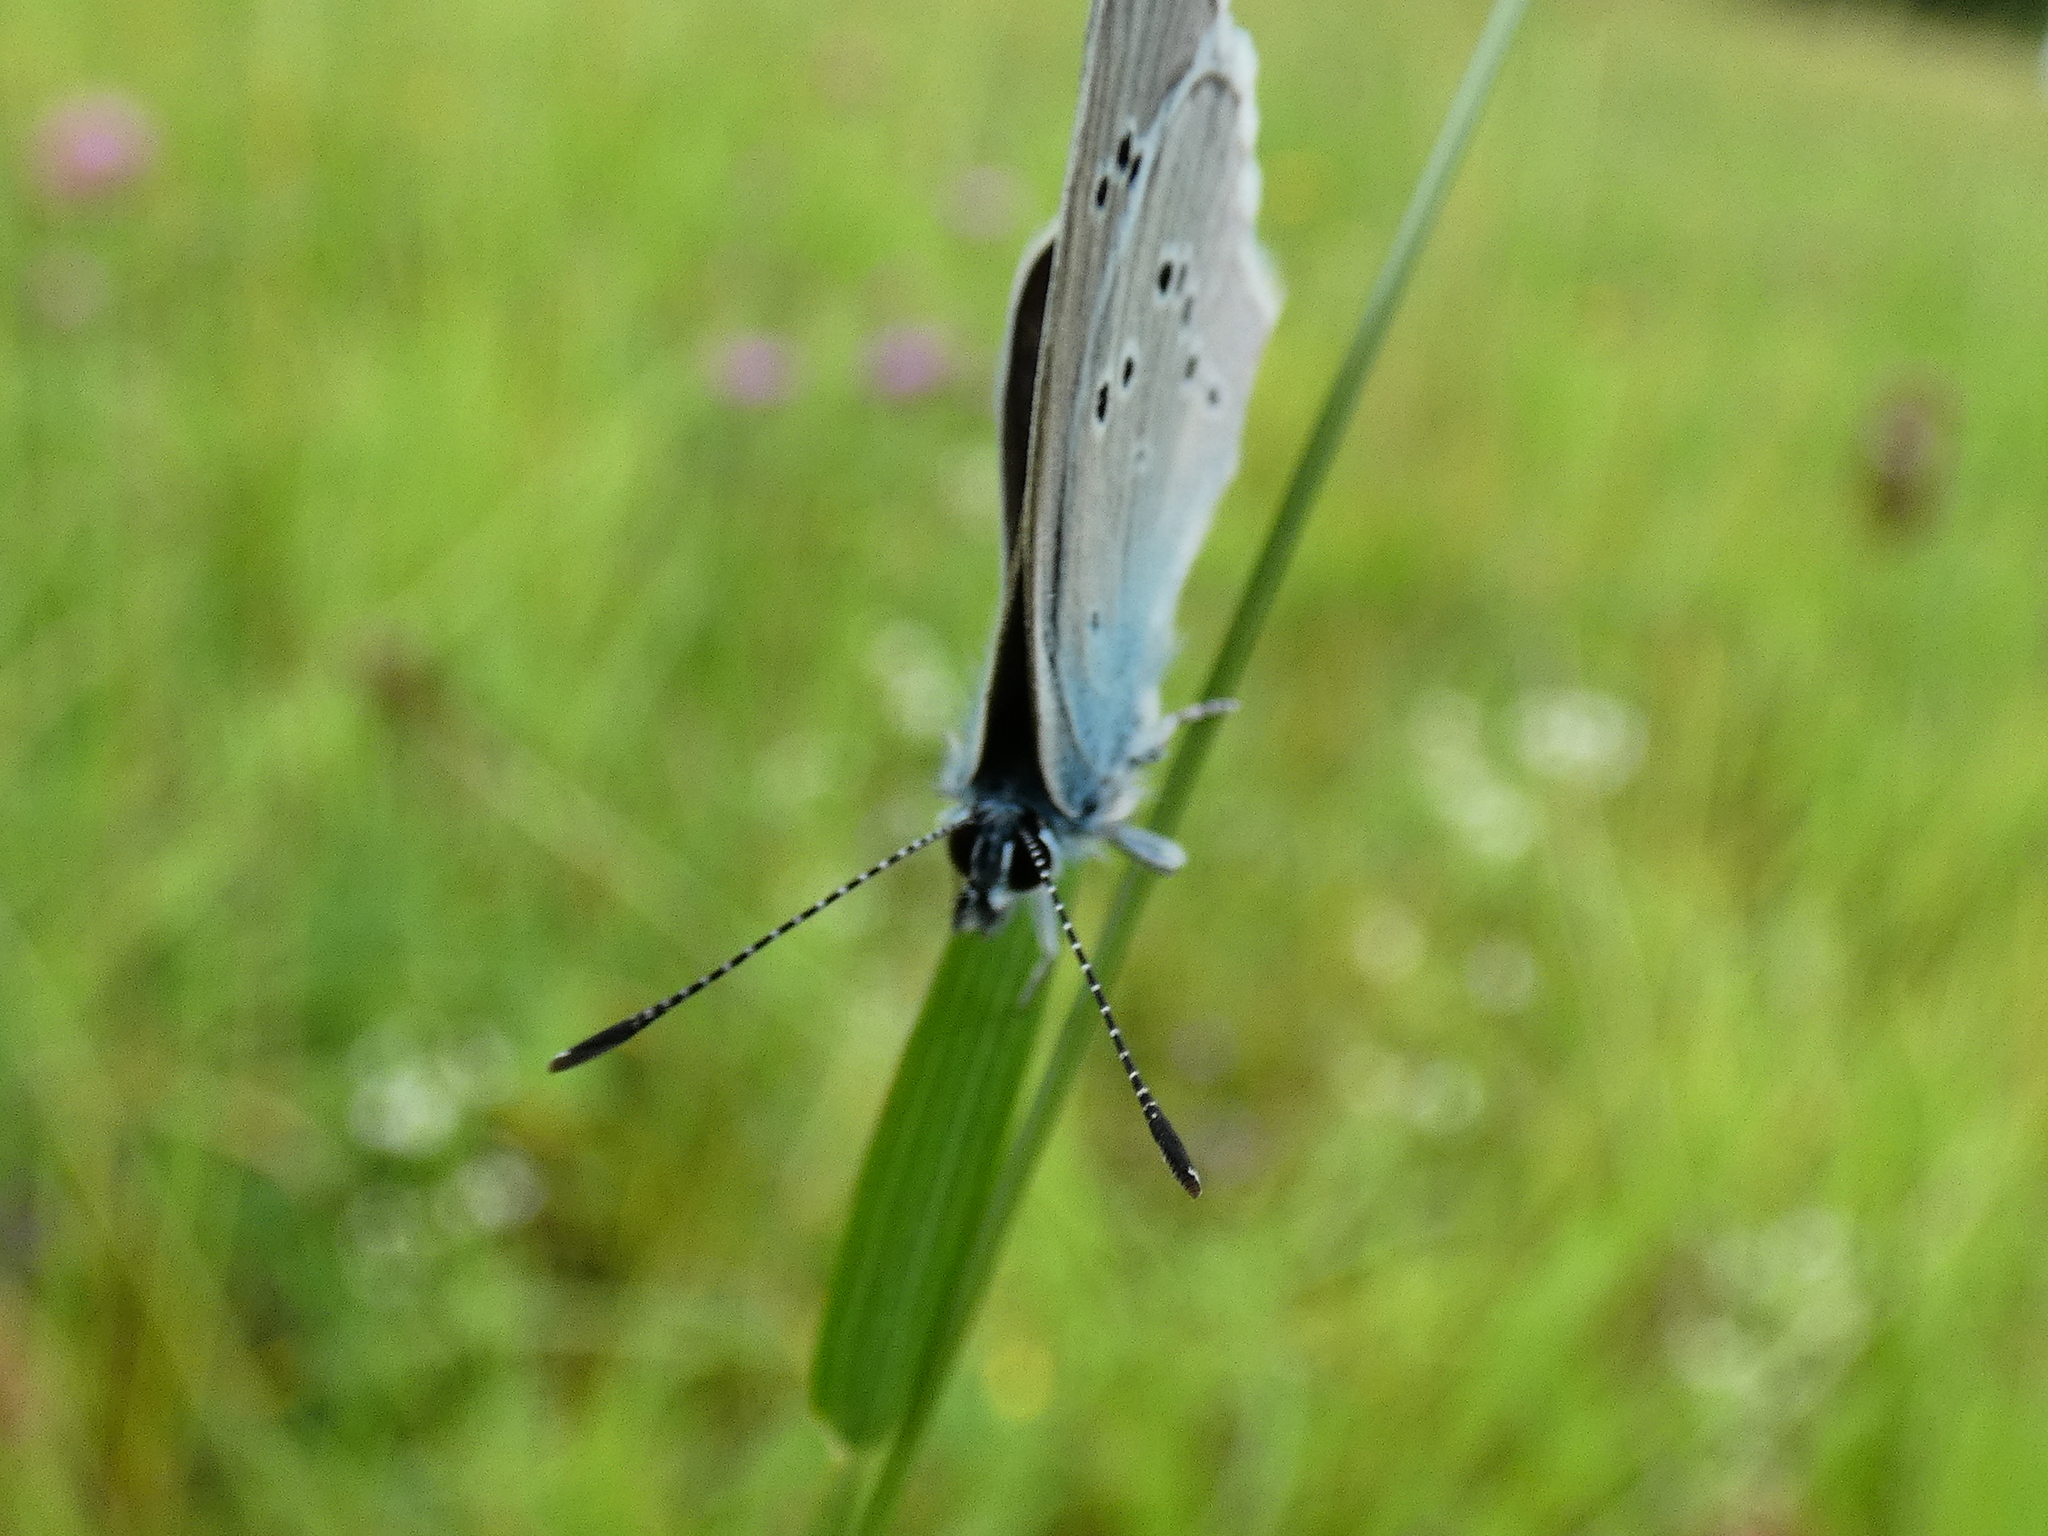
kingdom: Animalia
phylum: Arthropoda
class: Insecta
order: Lepidoptera
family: Lycaenidae
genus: Cyaniris
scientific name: Cyaniris semiargus
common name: Mazarine blue
